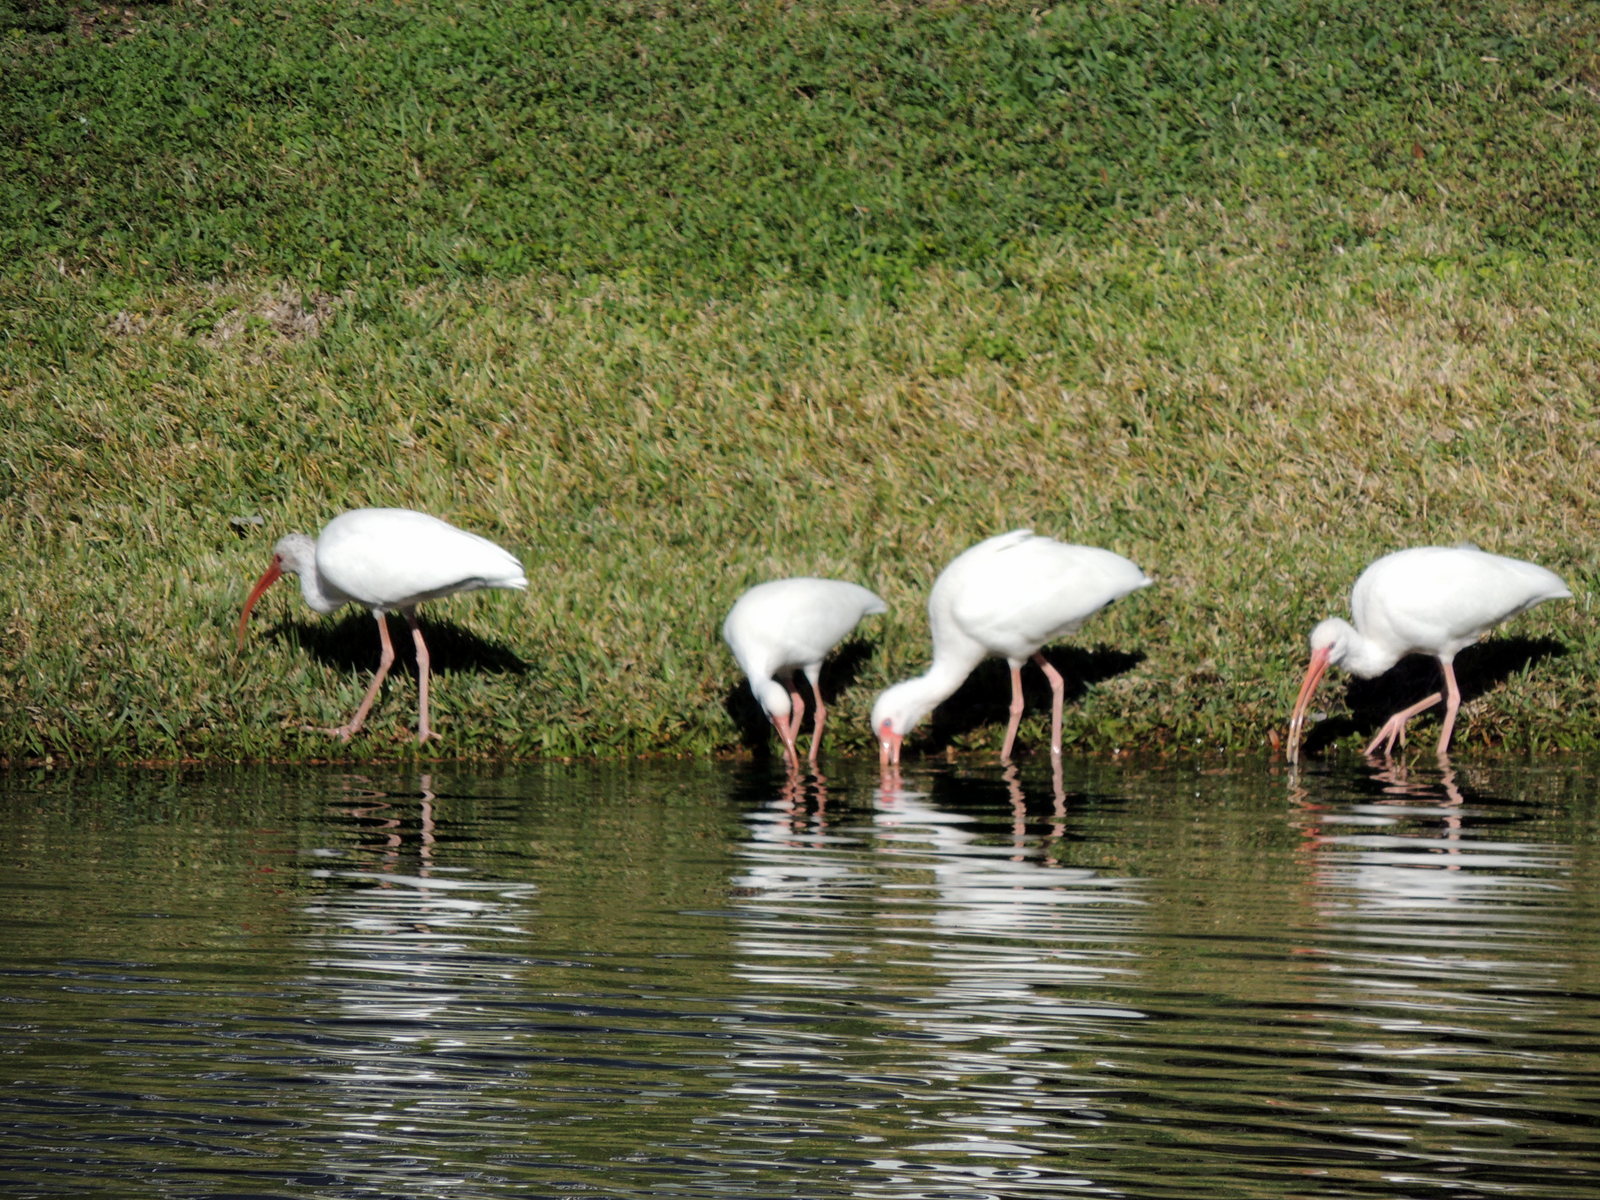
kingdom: Animalia
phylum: Chordata
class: Aves
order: Pelecaniformes
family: Threskiornithidae
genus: Eudocimus
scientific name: Eudocimus albus
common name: White ibis
